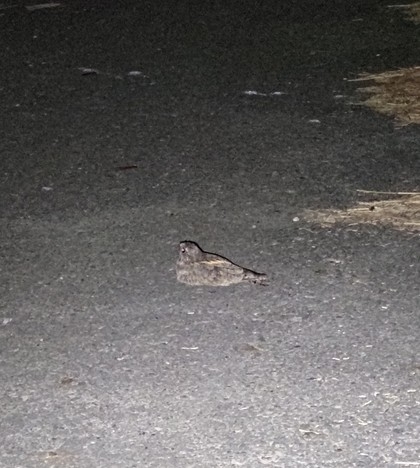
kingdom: Animalia
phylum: Chordata
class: Aves
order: Caprimulgiformes
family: Caprimulgidae
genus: Caprimulgus
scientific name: Caprimulgus affinis
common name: Savanna nightjar
